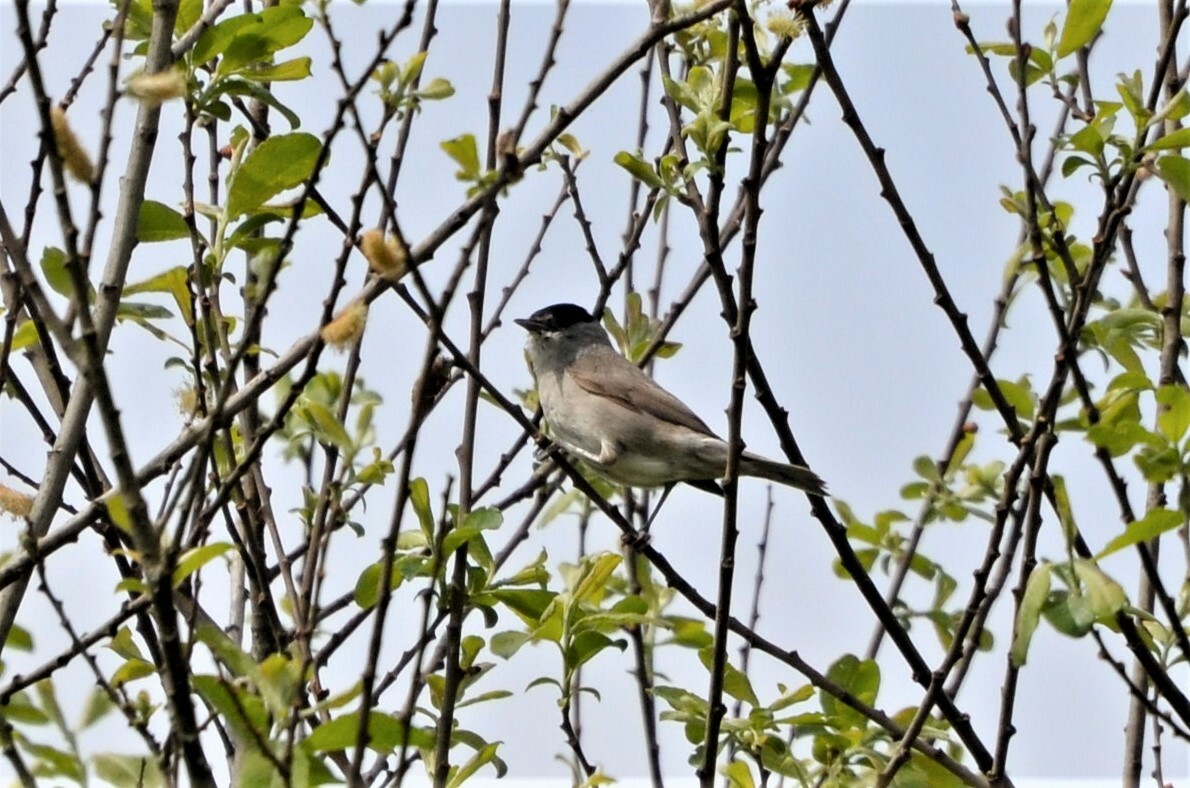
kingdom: Animalia
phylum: Chordata
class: Aves
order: Passeriformes
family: Sylviidae
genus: Sylvia
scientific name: Sylvia atricapilla
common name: Eurasian blackcap
